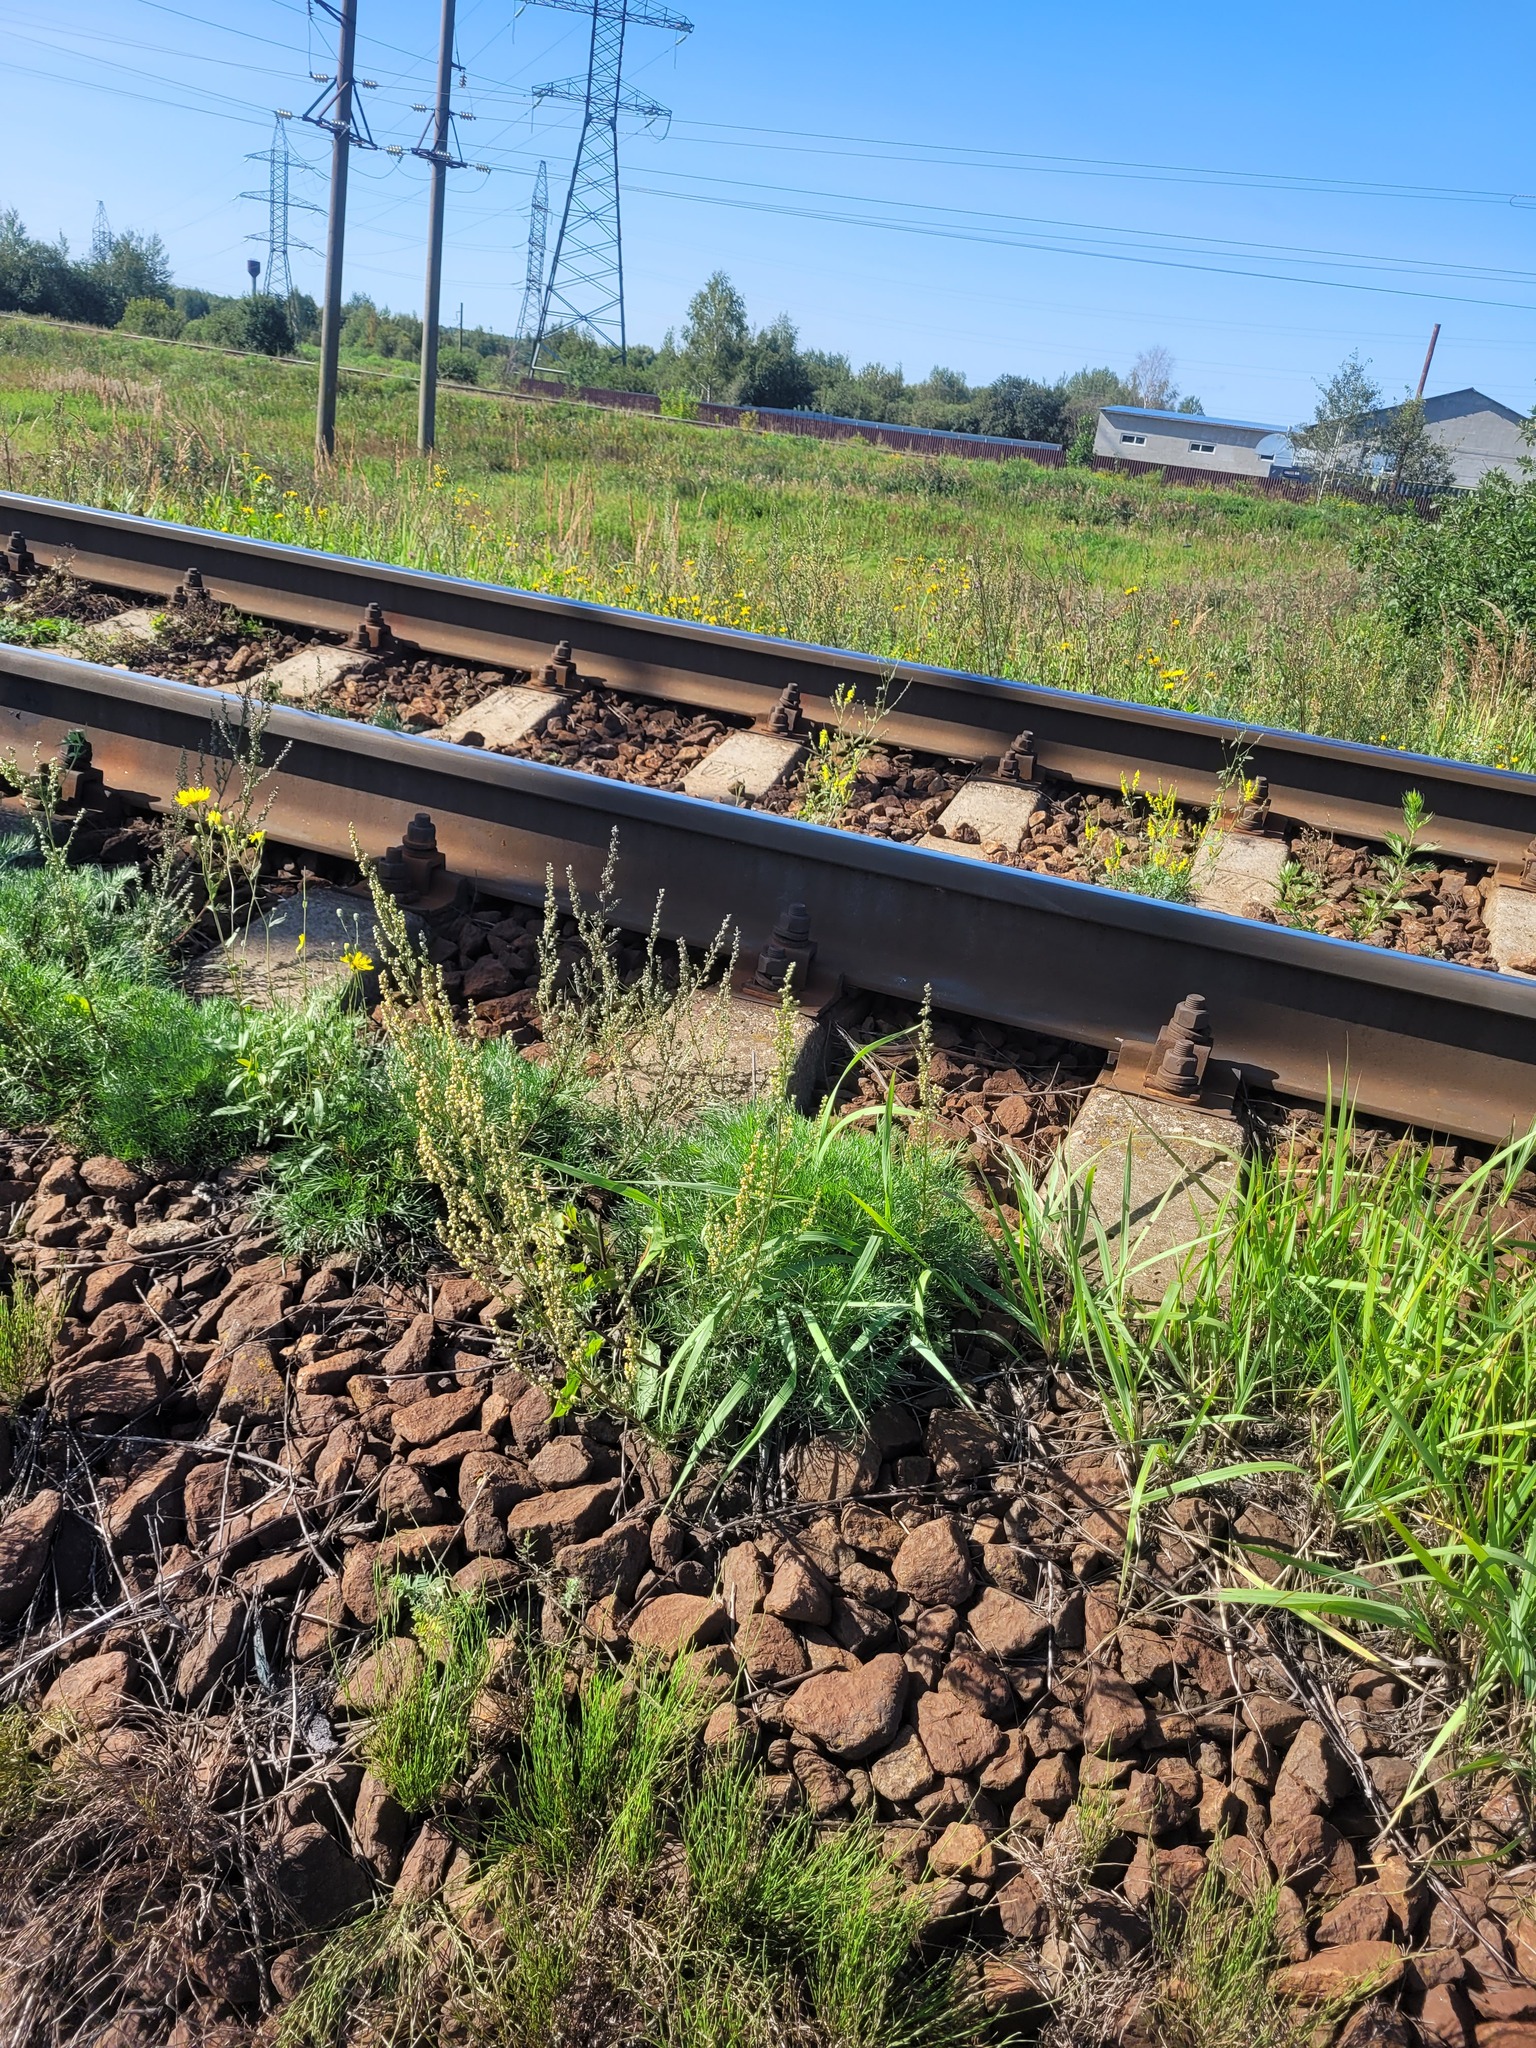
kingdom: Plantae
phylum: Tracheophyta
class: Magnoliopsida
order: Asterales
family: Asteraceae
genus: Artemisia
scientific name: Artemisia campestris
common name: Field wormwood
